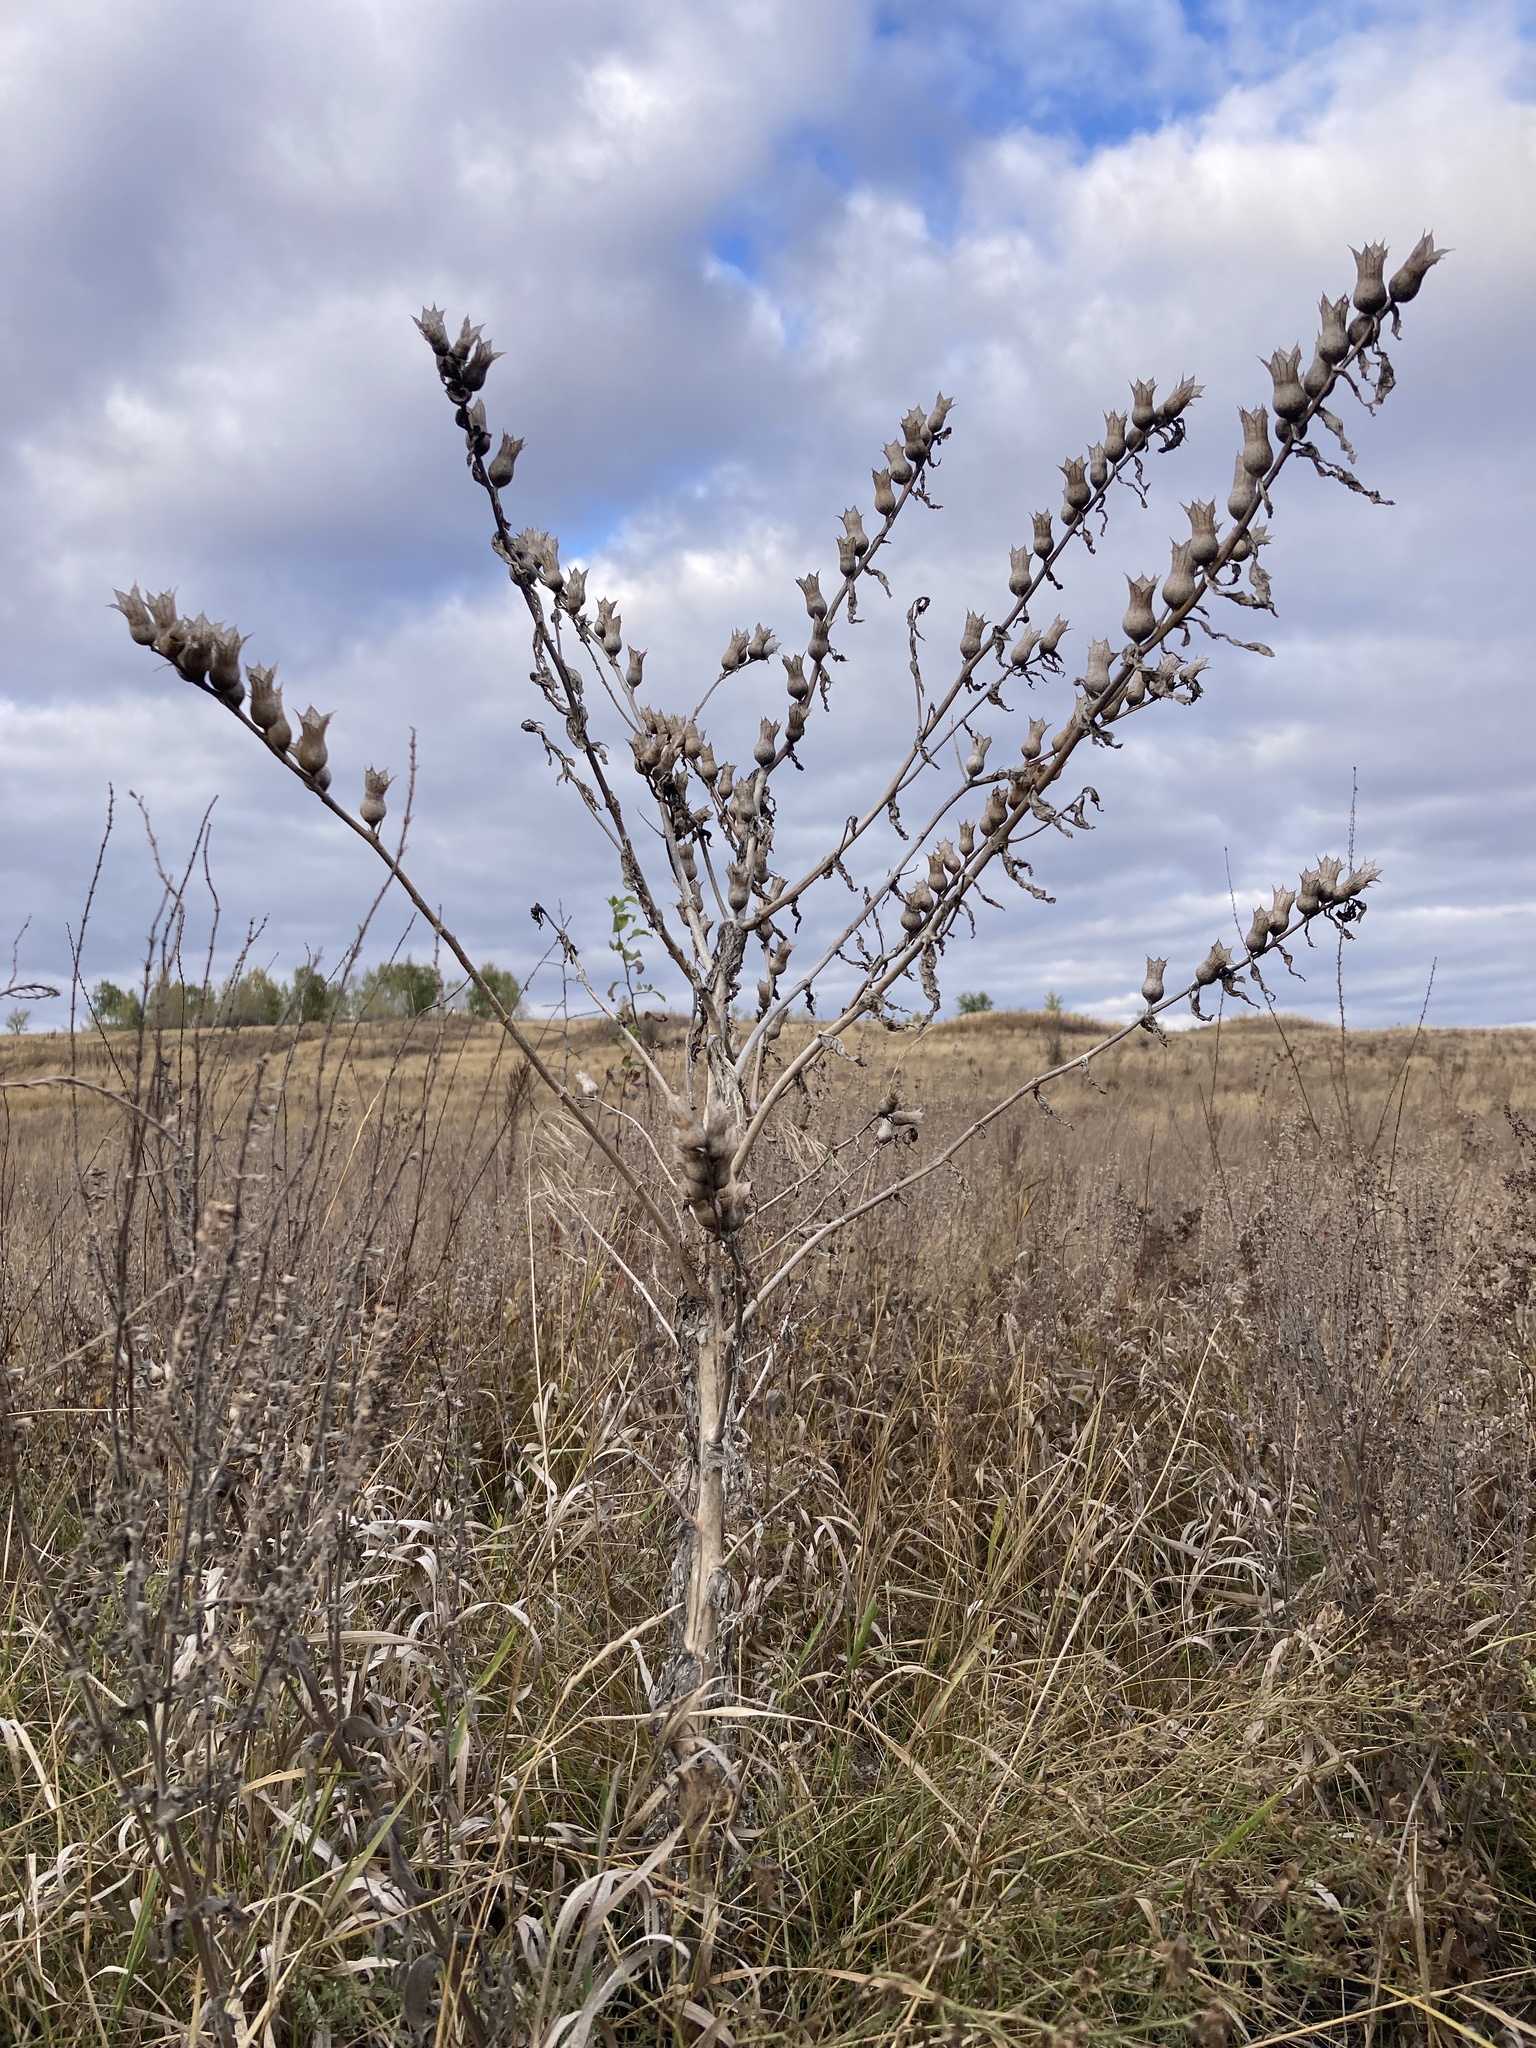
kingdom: Plantae
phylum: Tracheophyta
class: Magnoliopsida
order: Solanales
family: Solanaceae
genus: Hyoscyamus
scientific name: Hyoscyamus niger
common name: Henbane
